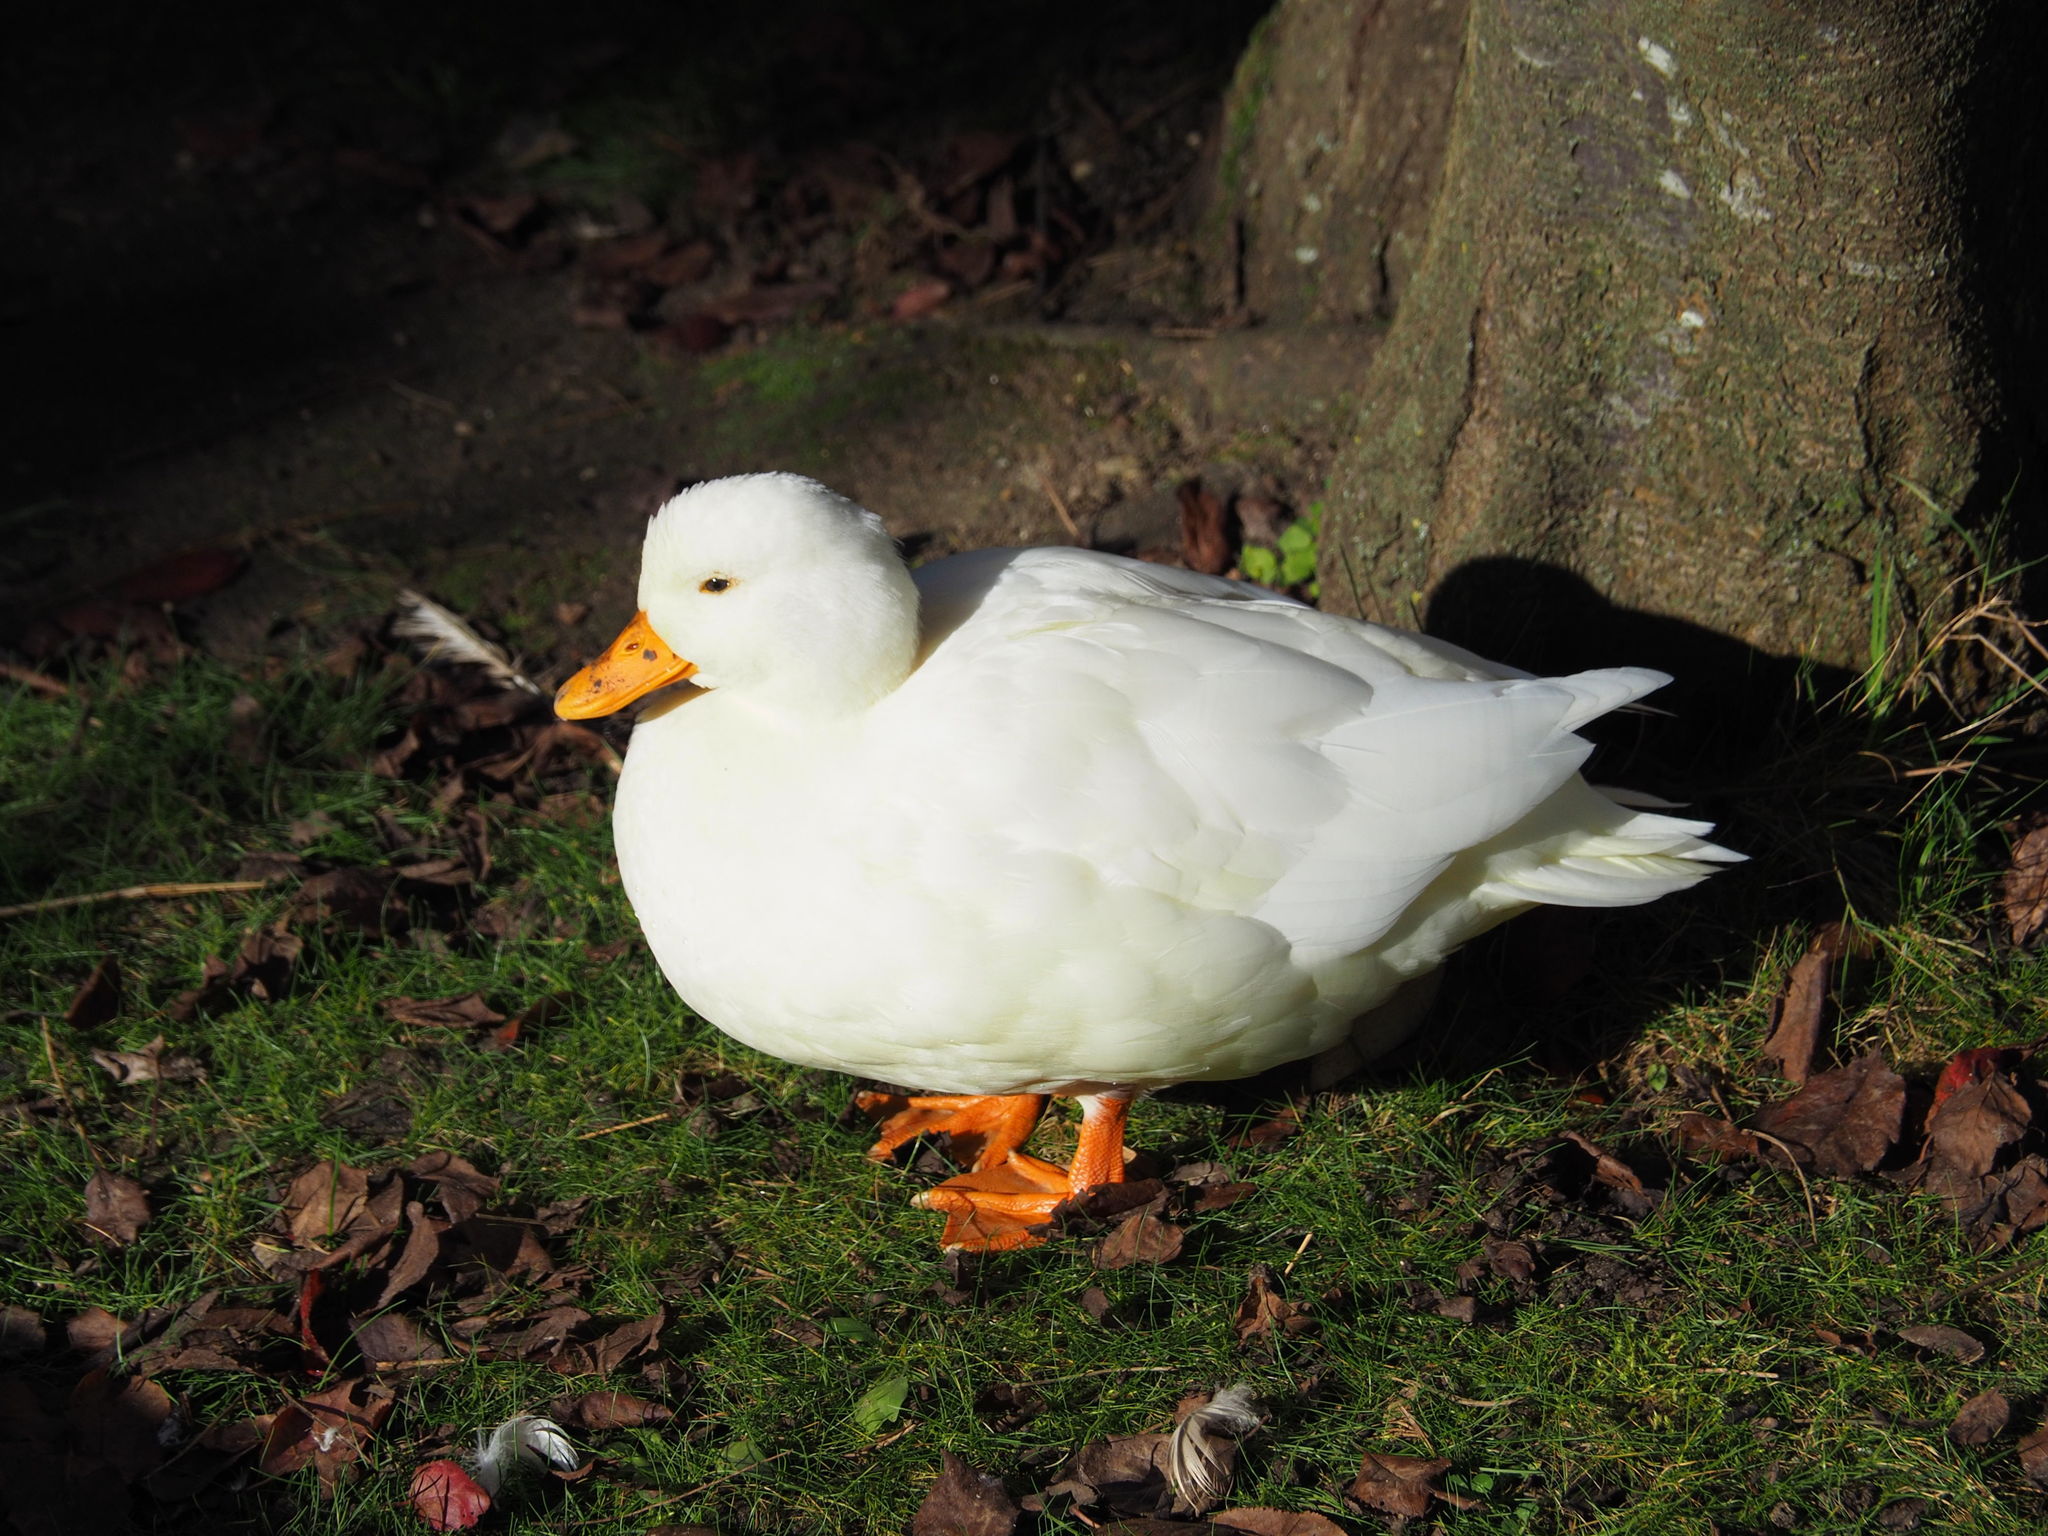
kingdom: Animalia
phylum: Chordata
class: Aves
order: Anseriformes
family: Anatidae
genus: Anas
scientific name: Anas platyrhynchos
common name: Mallard
